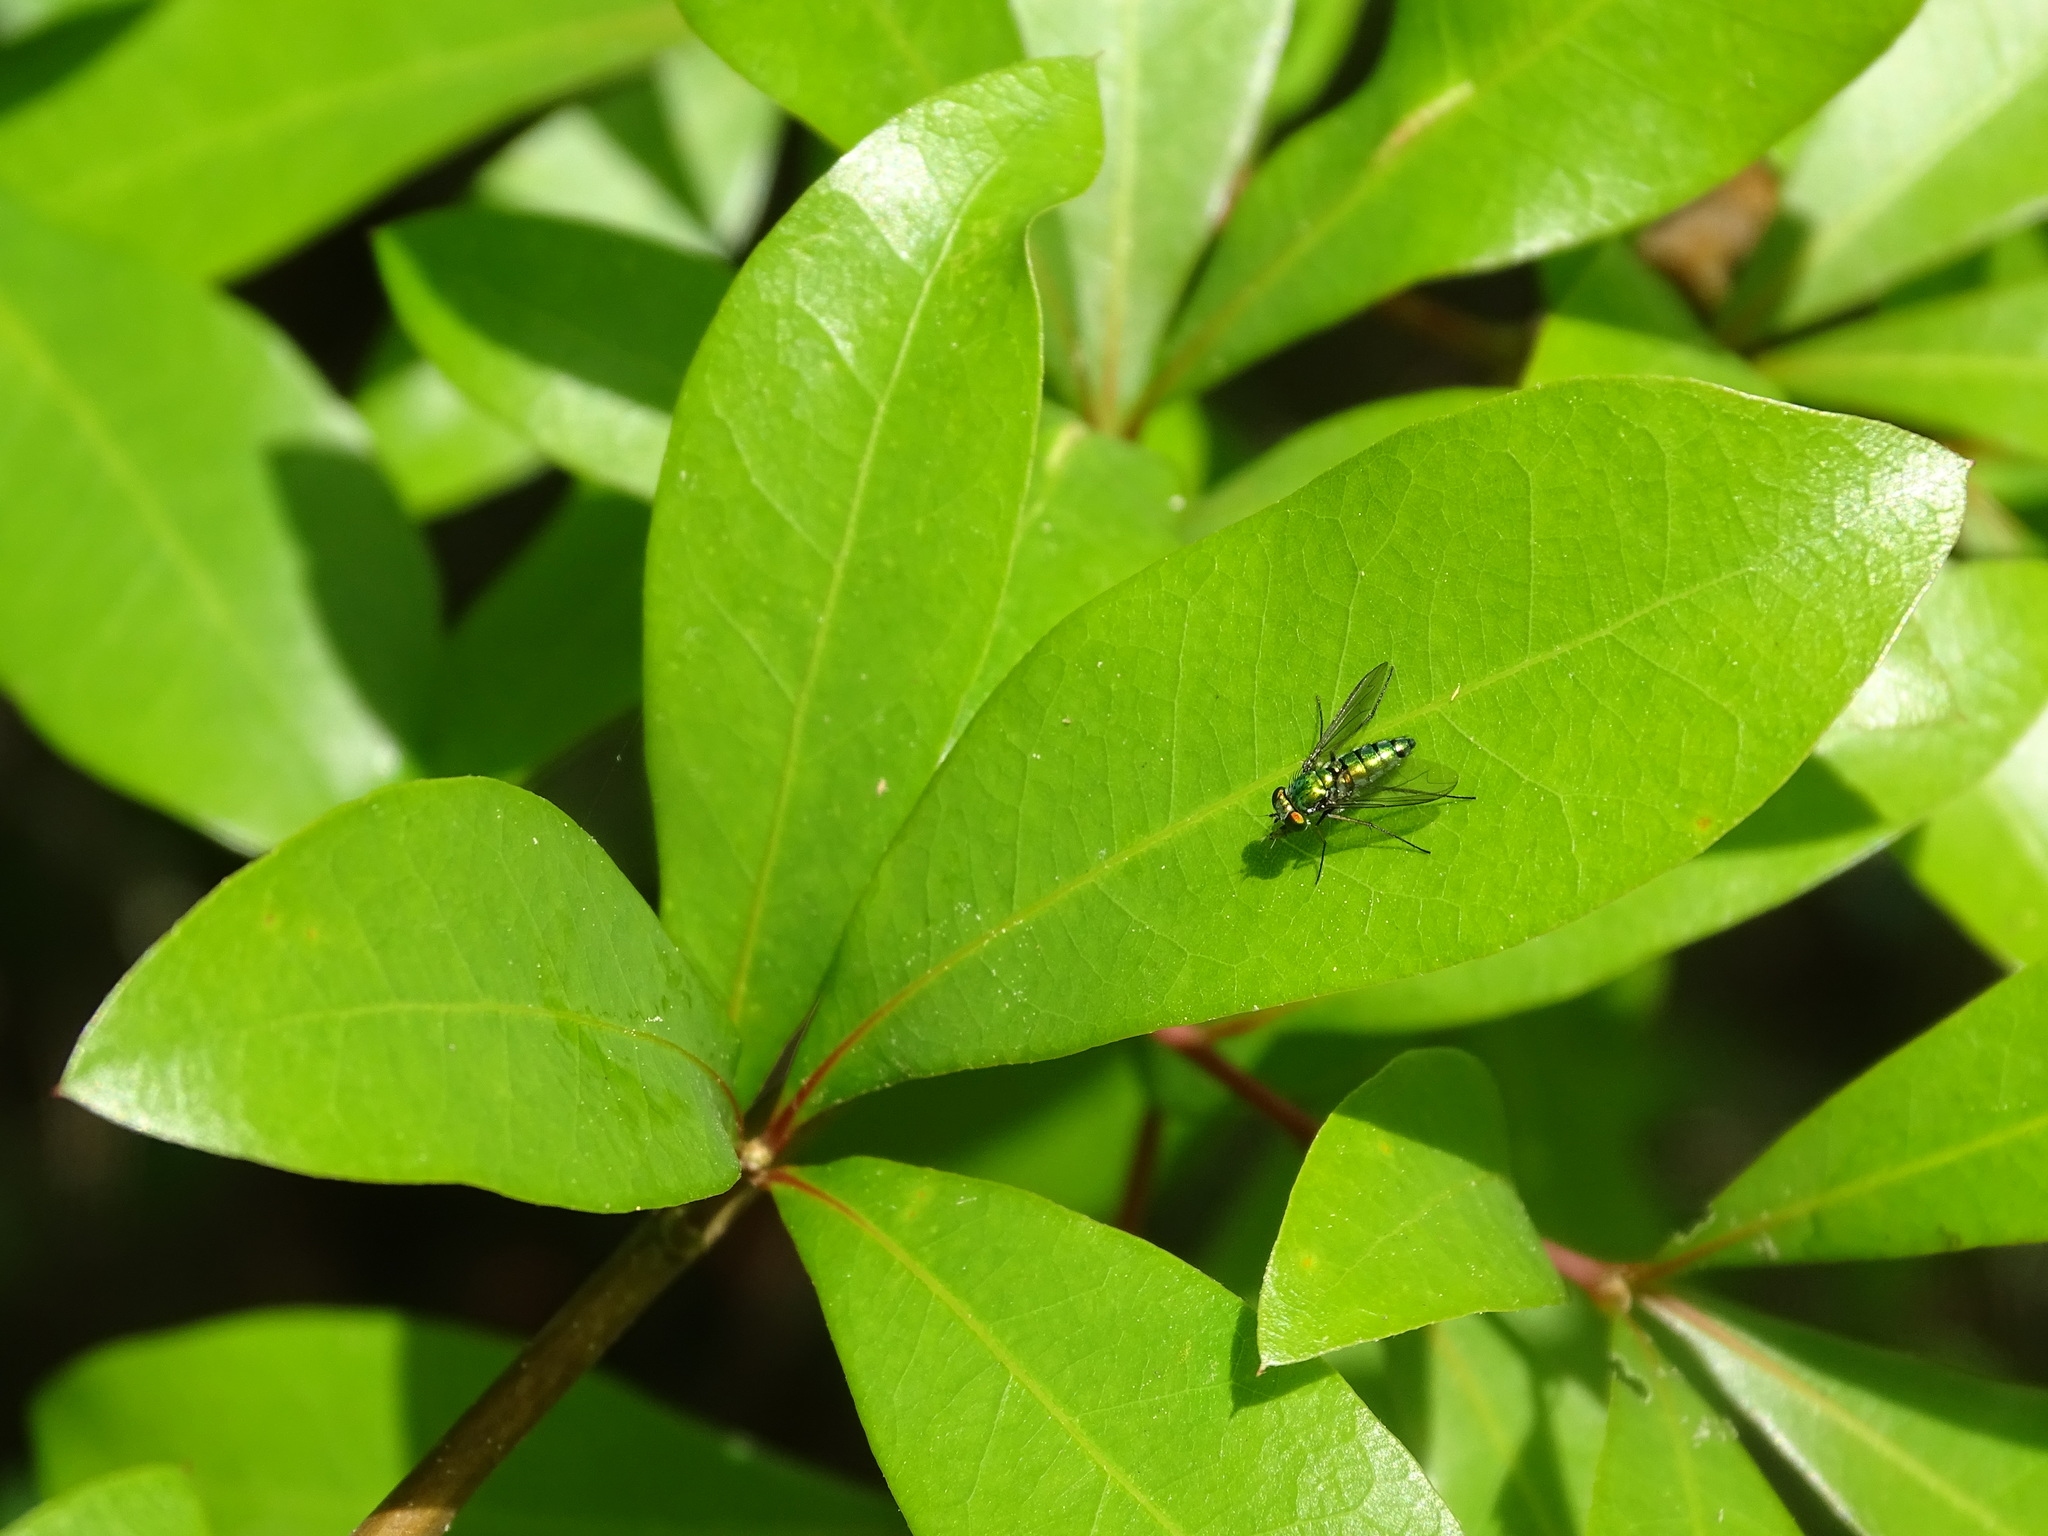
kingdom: Animalia
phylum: Arthropoda
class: Insecta
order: Diptera
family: Dolichopodidae
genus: Condylostylus
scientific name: Condylostylus longicornis
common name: Long-legged fly
